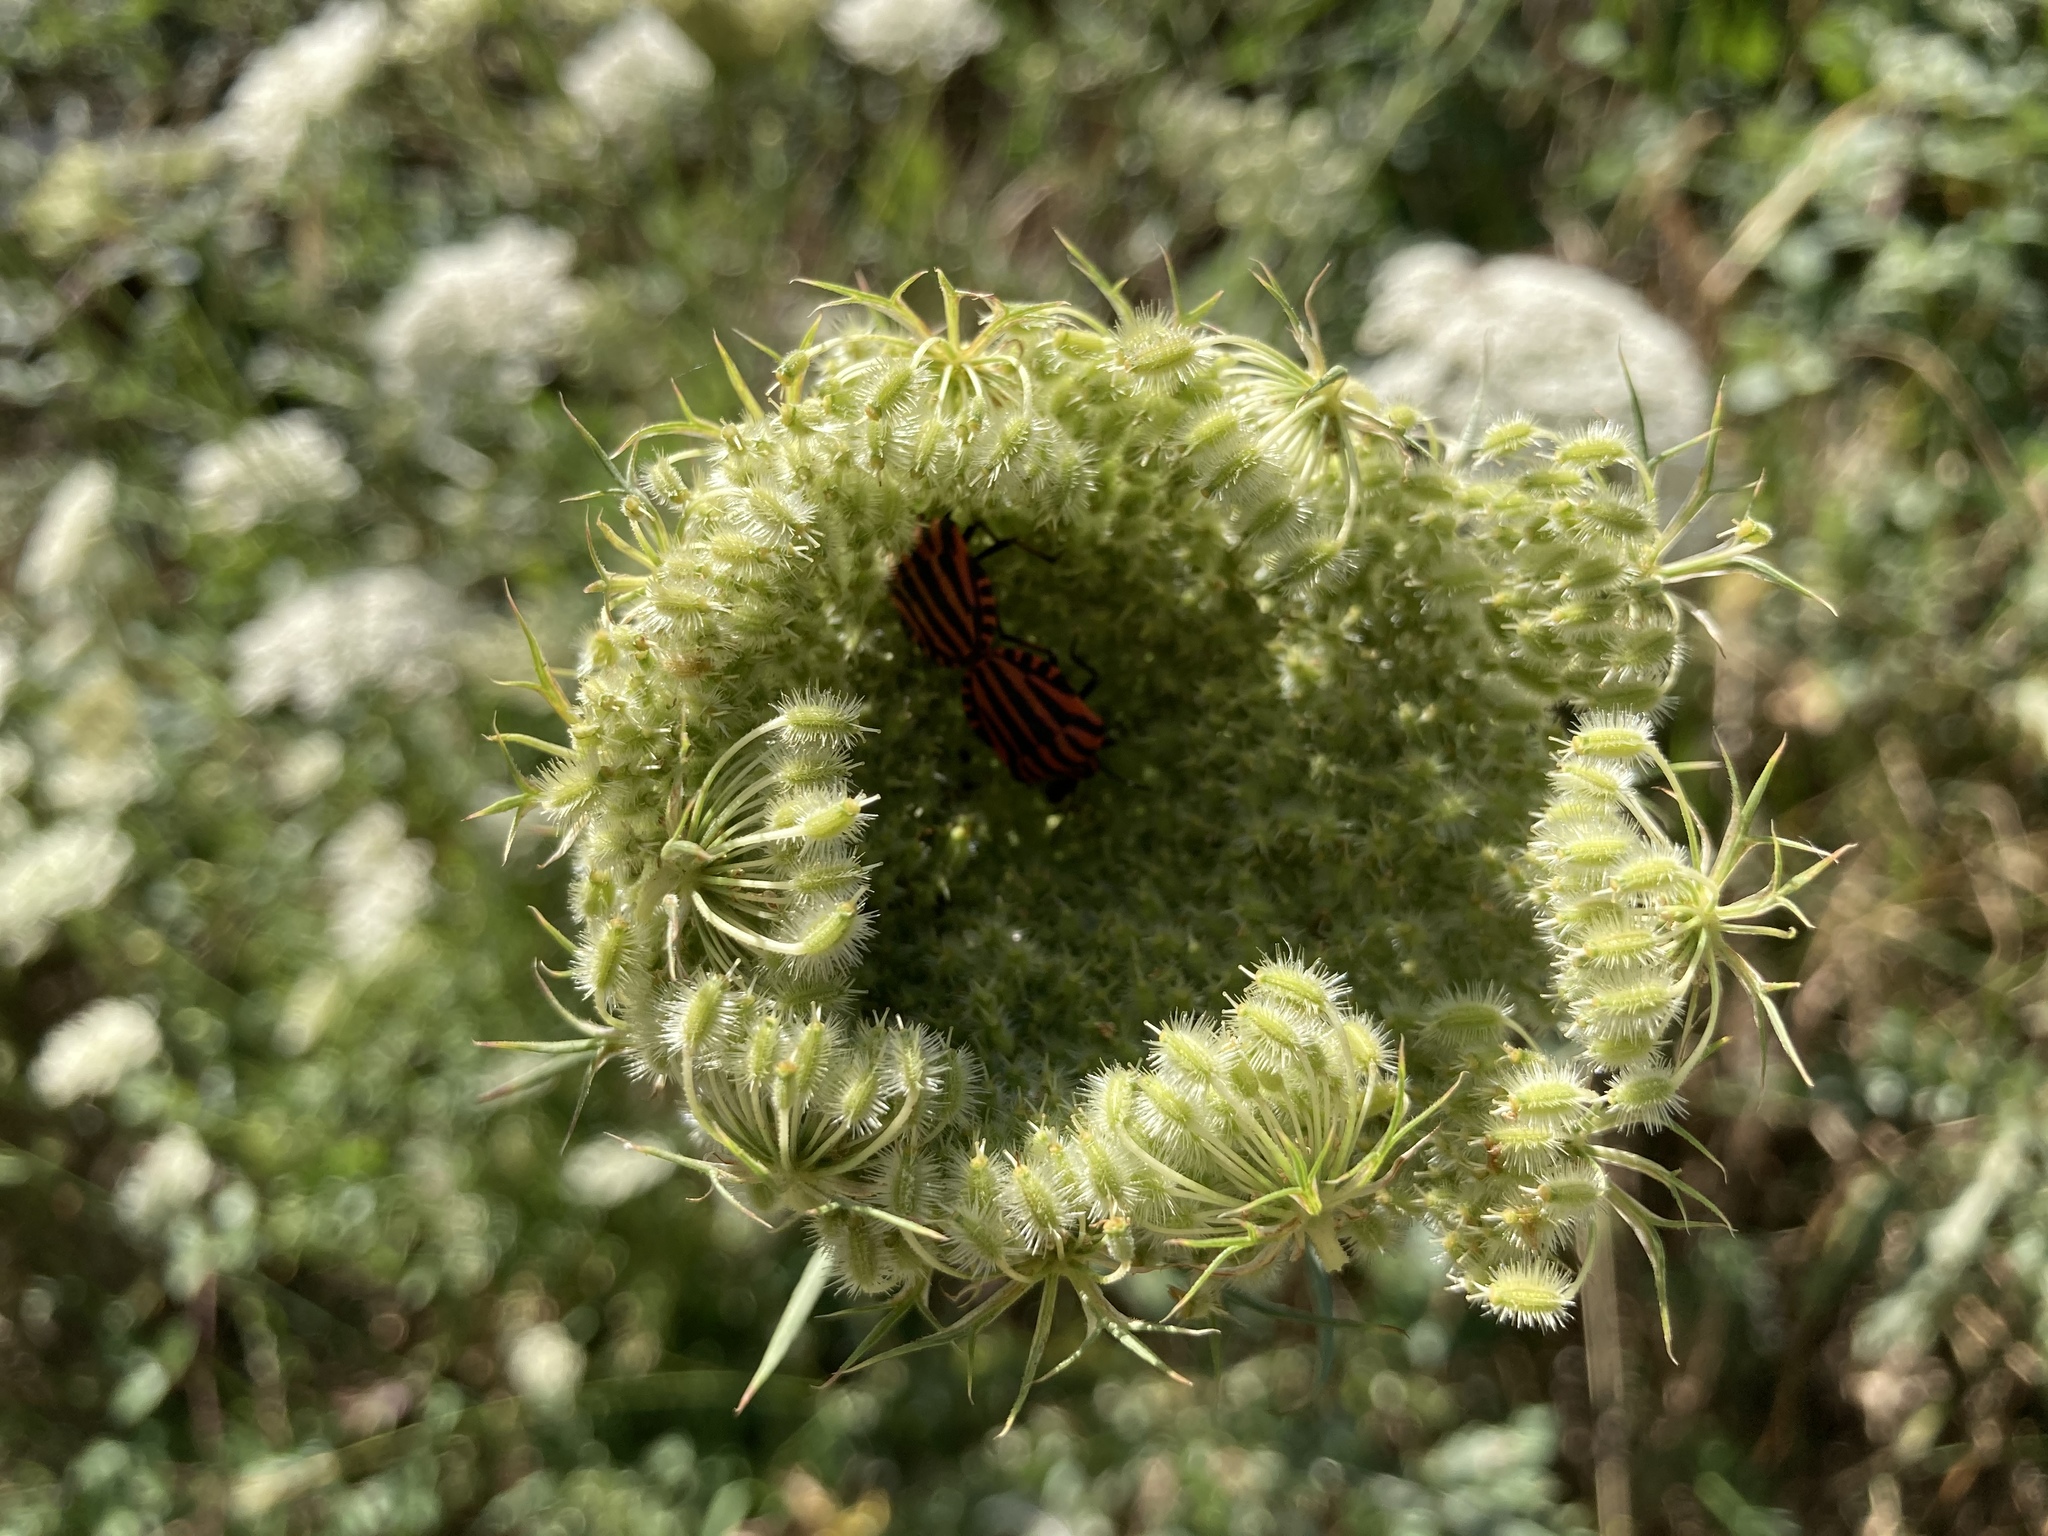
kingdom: Animalia
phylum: Arthropoda
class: Insecta
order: Hemiptera
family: Pentatomidae
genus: Graphosoma
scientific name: Graphosoma italicum
